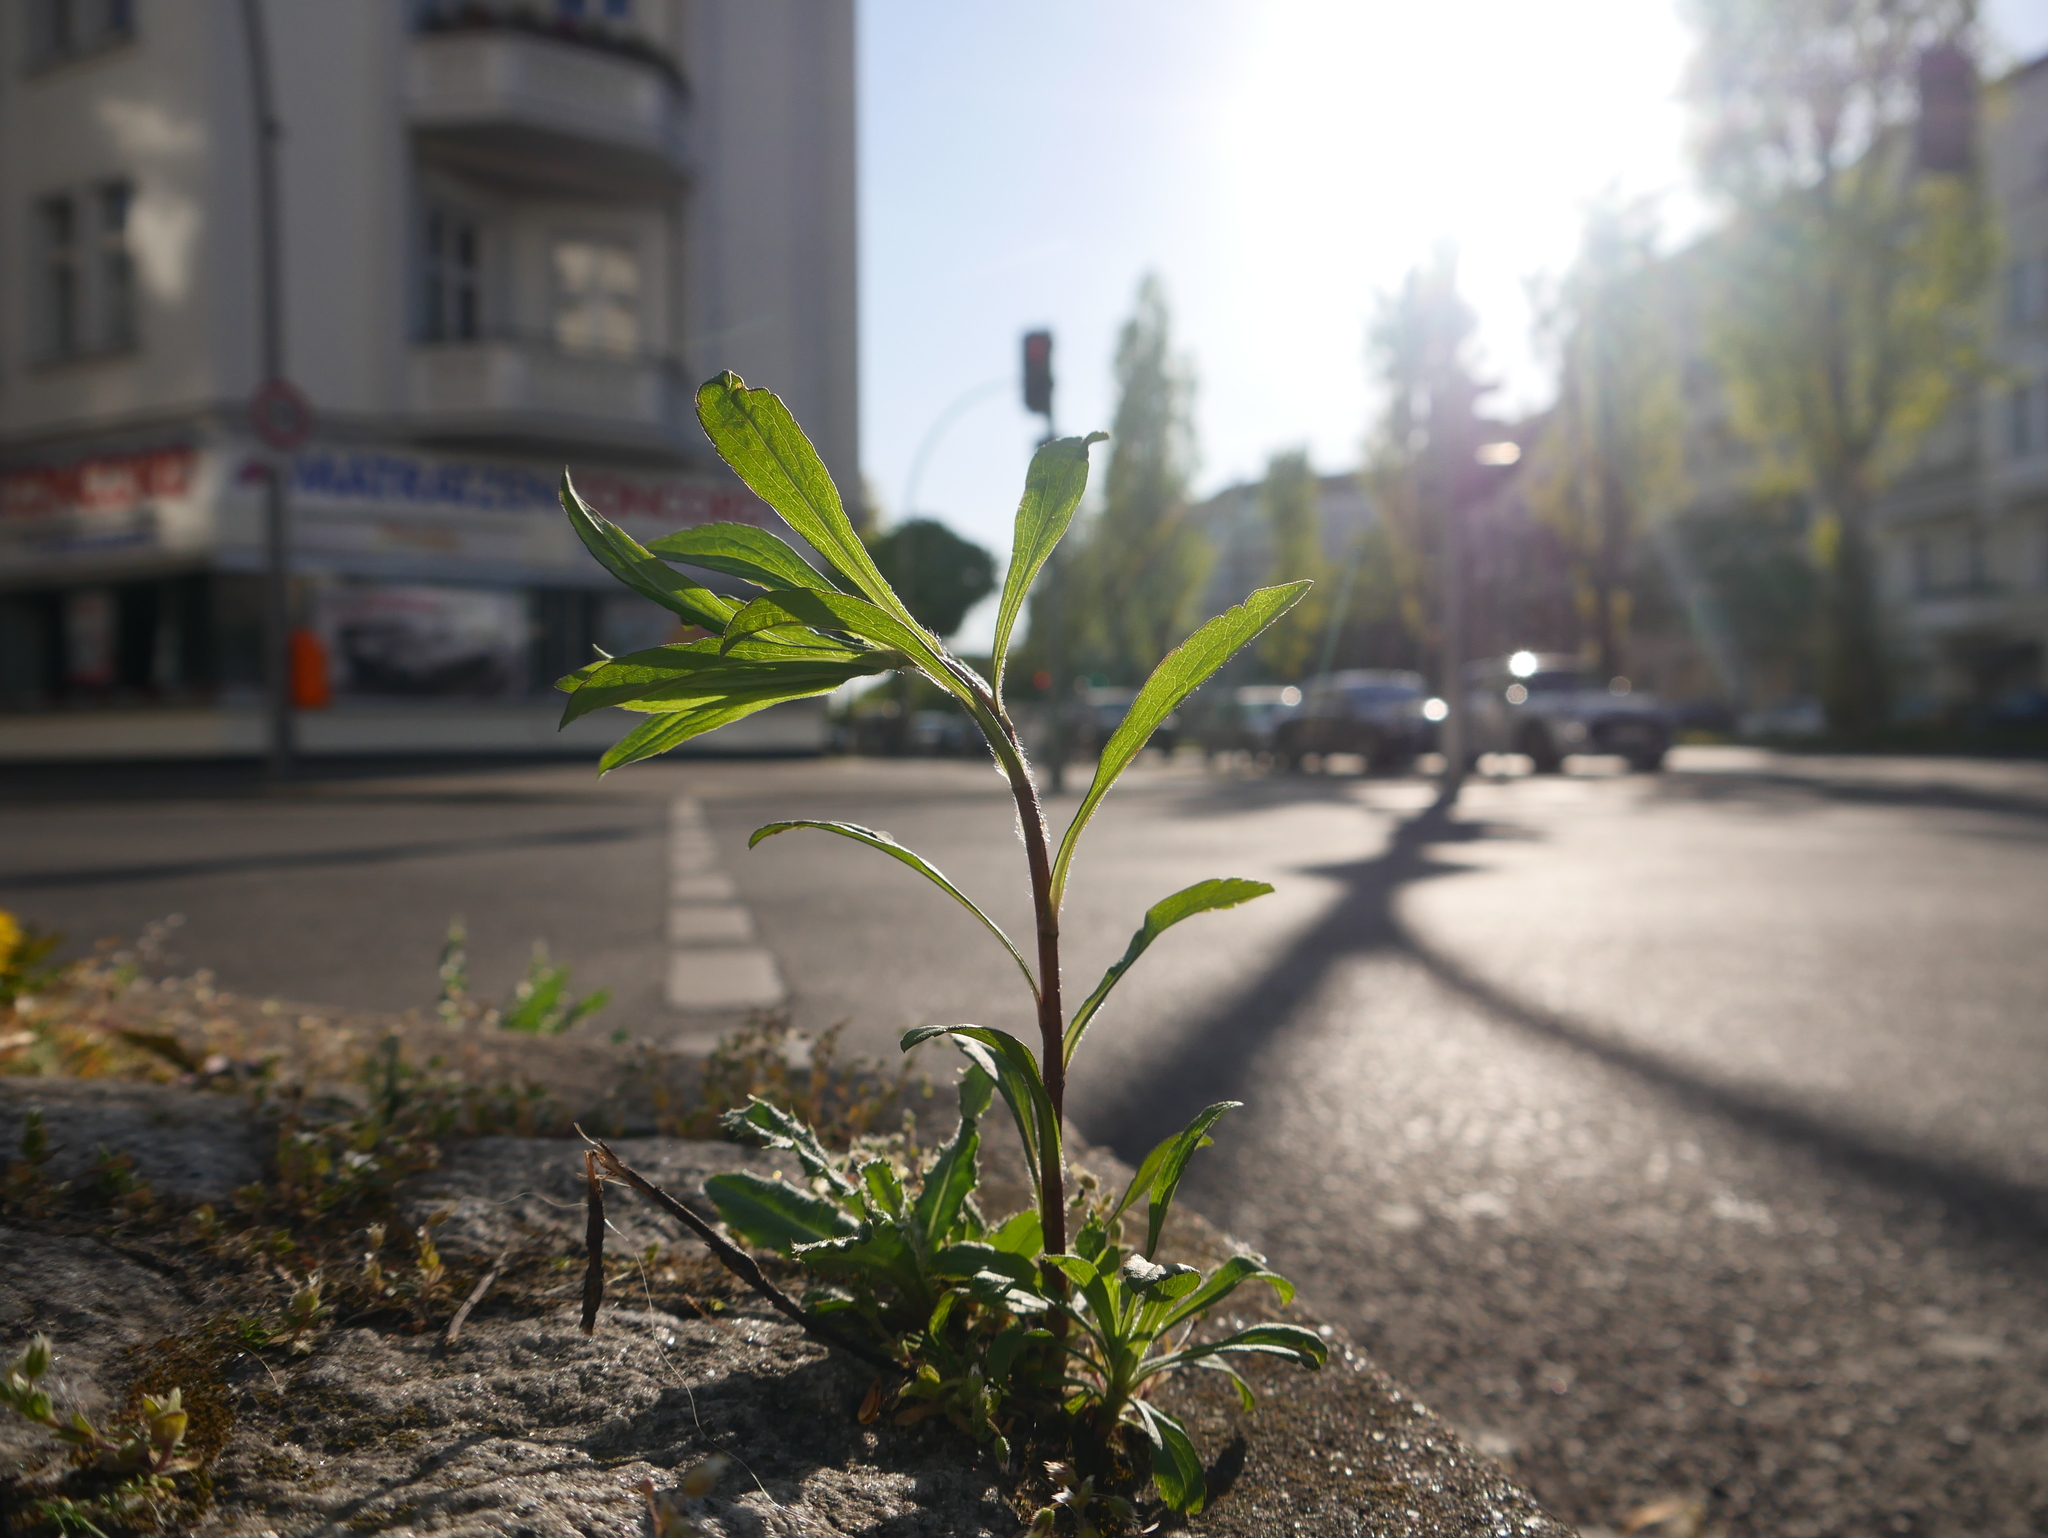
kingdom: Plantae
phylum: Tracheophyta
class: Magnoliopsida
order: Asterales
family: Asteraceae
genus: Solidago
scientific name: Solidago canadensis
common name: Canada goldenrod
